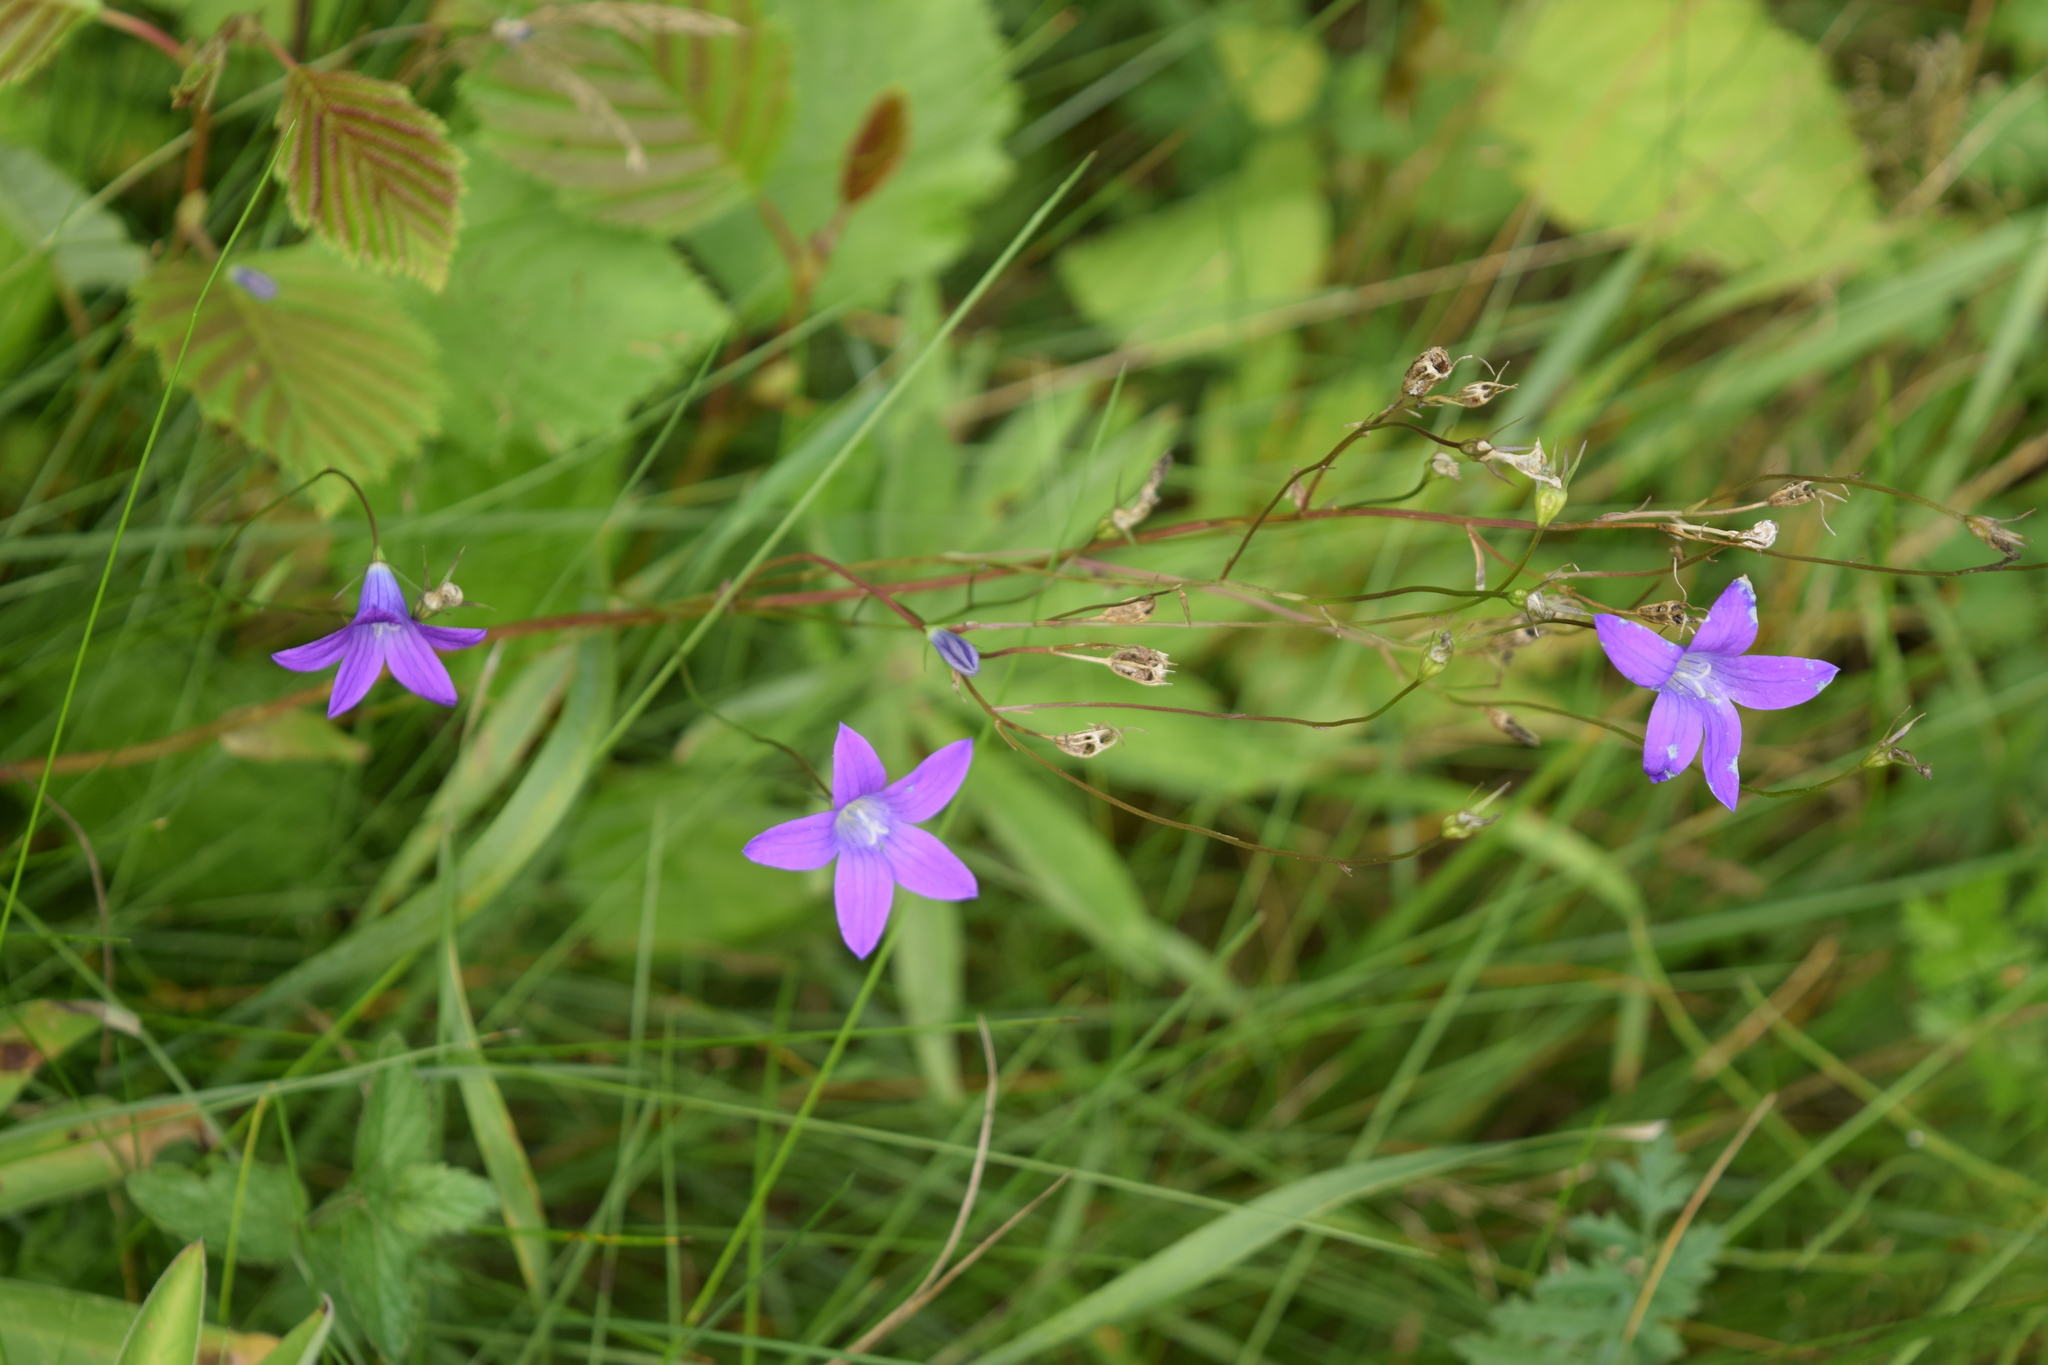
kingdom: Plantae
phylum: Tracheophyta
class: Magnoliopsida
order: Asterales
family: Campanulaceae
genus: Campanula
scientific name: Campanula patula
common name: Spreading bellflower
